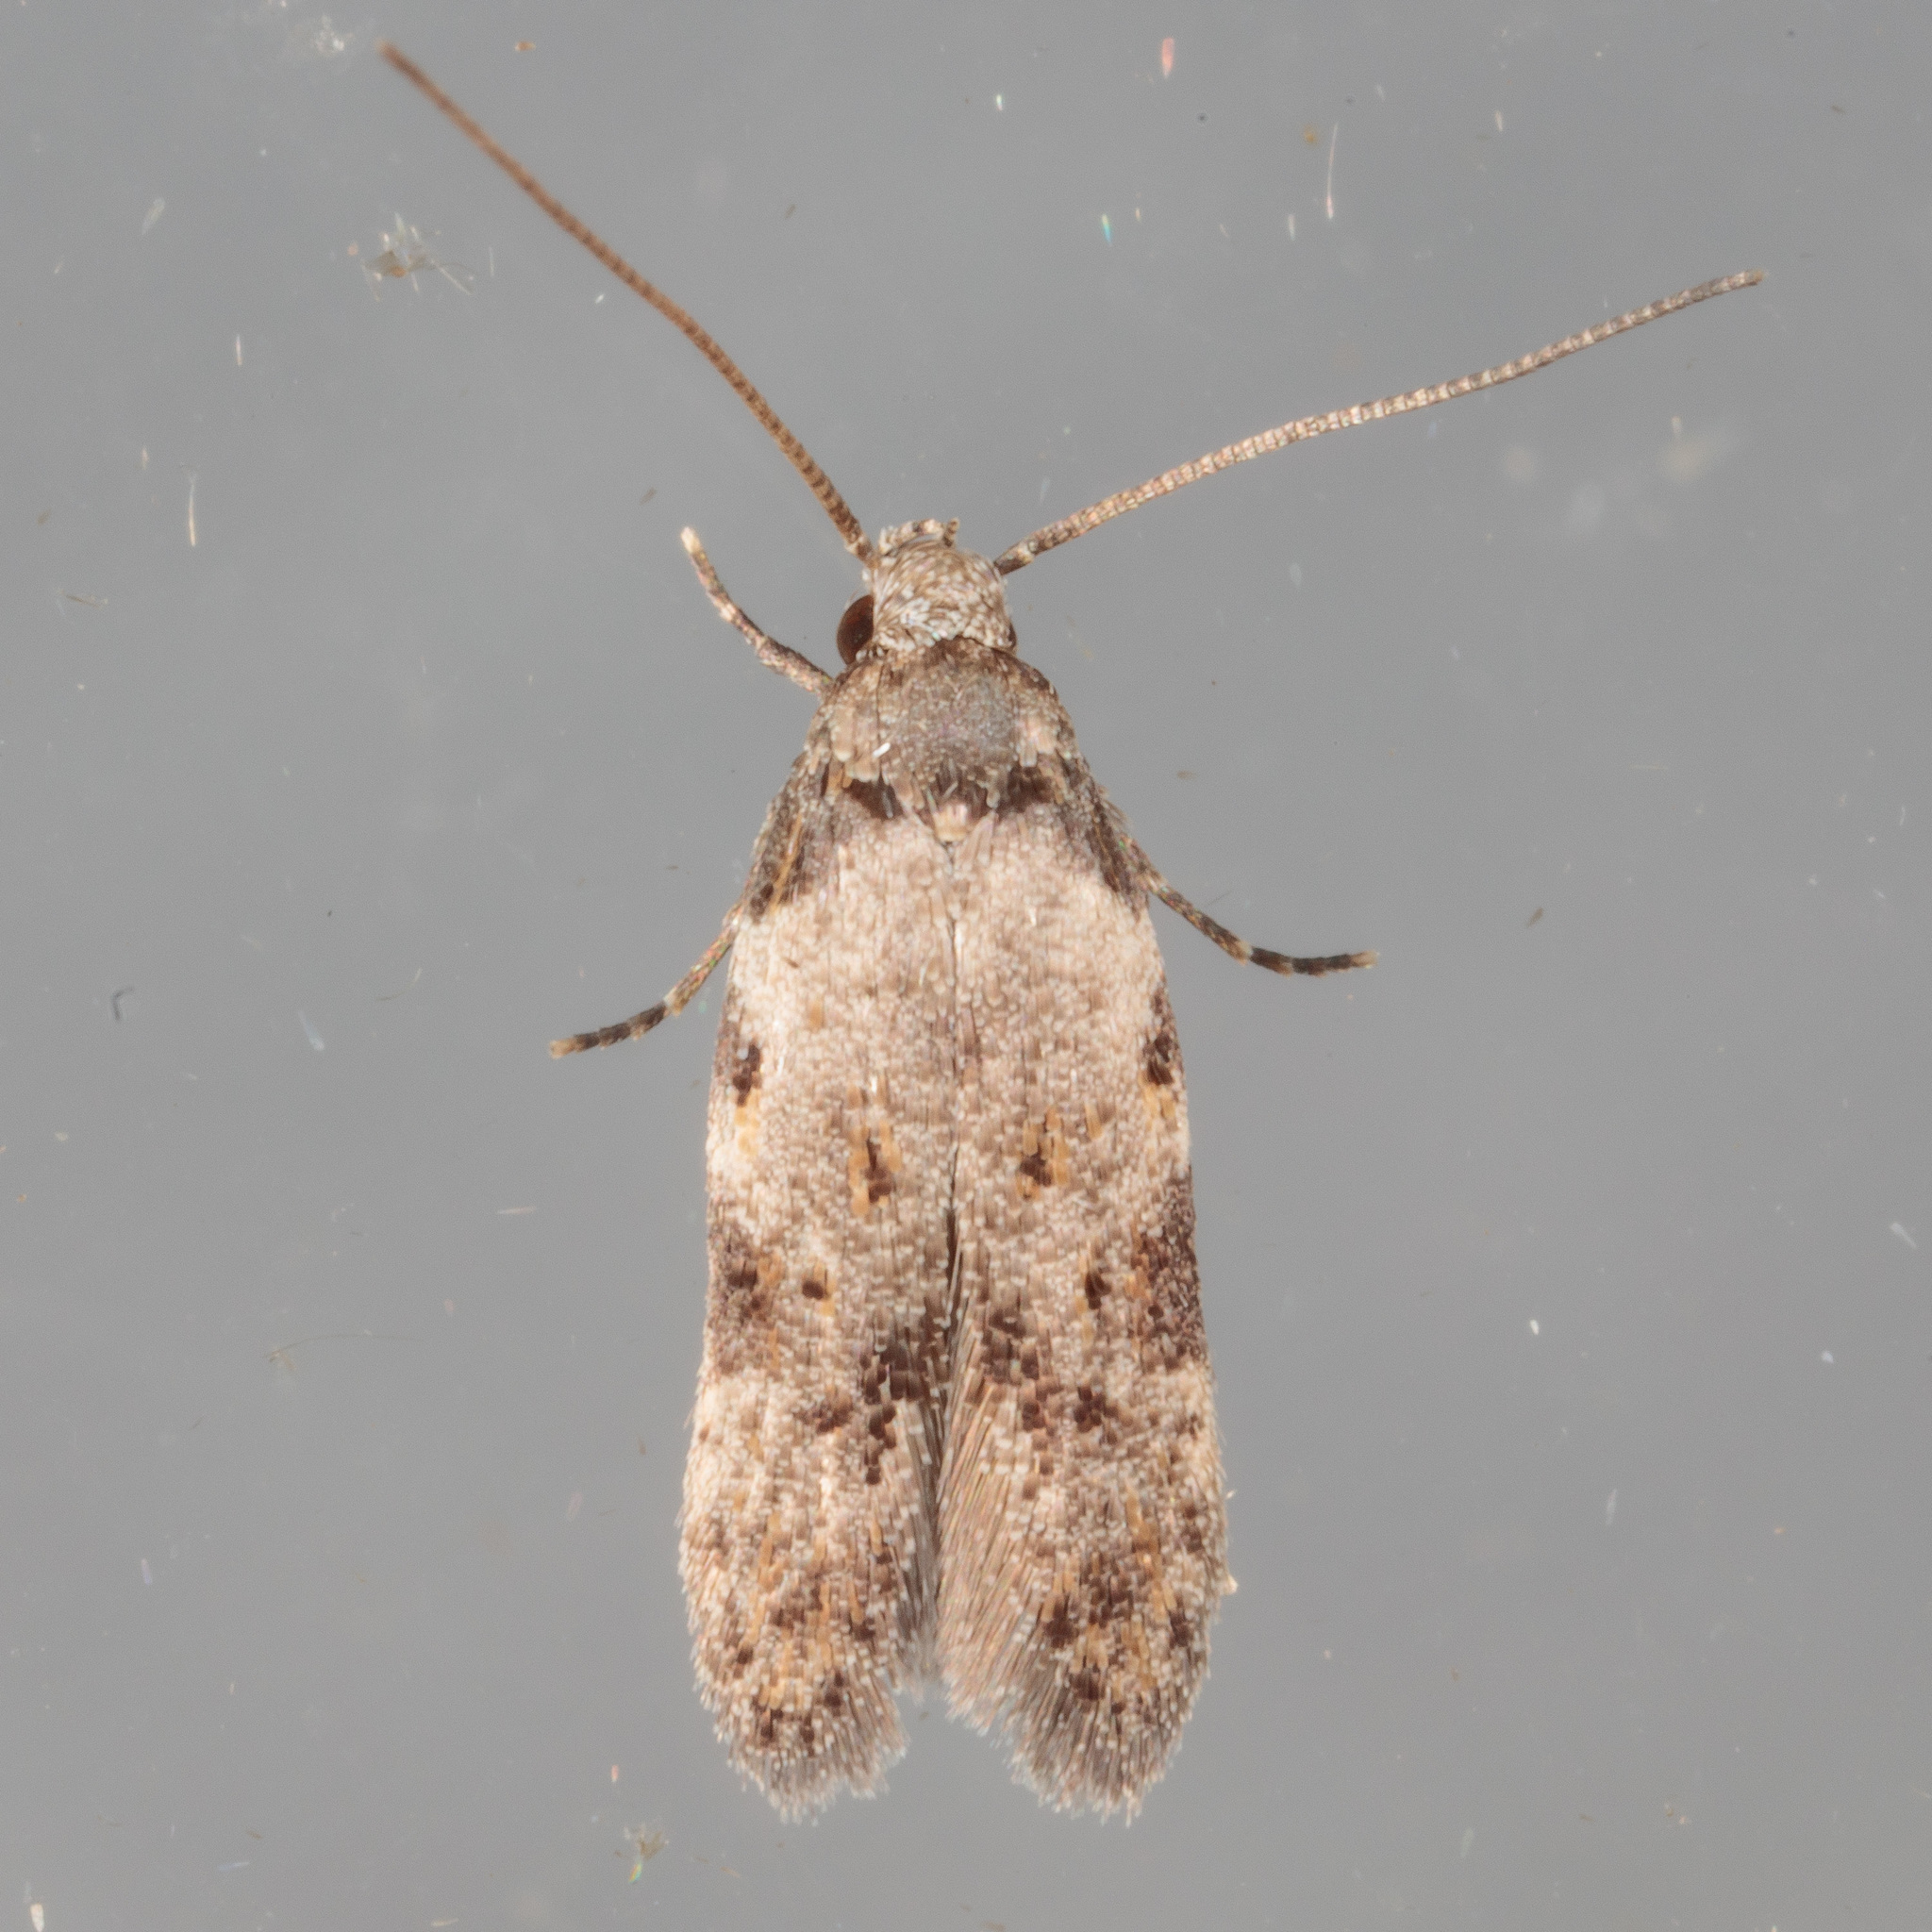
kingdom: Animalia
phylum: Arthropoda
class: Insecta
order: Lepidoptera
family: Autostichidae
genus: Taygete
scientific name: Taygete attributella
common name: Triangle-marked twirler moth
